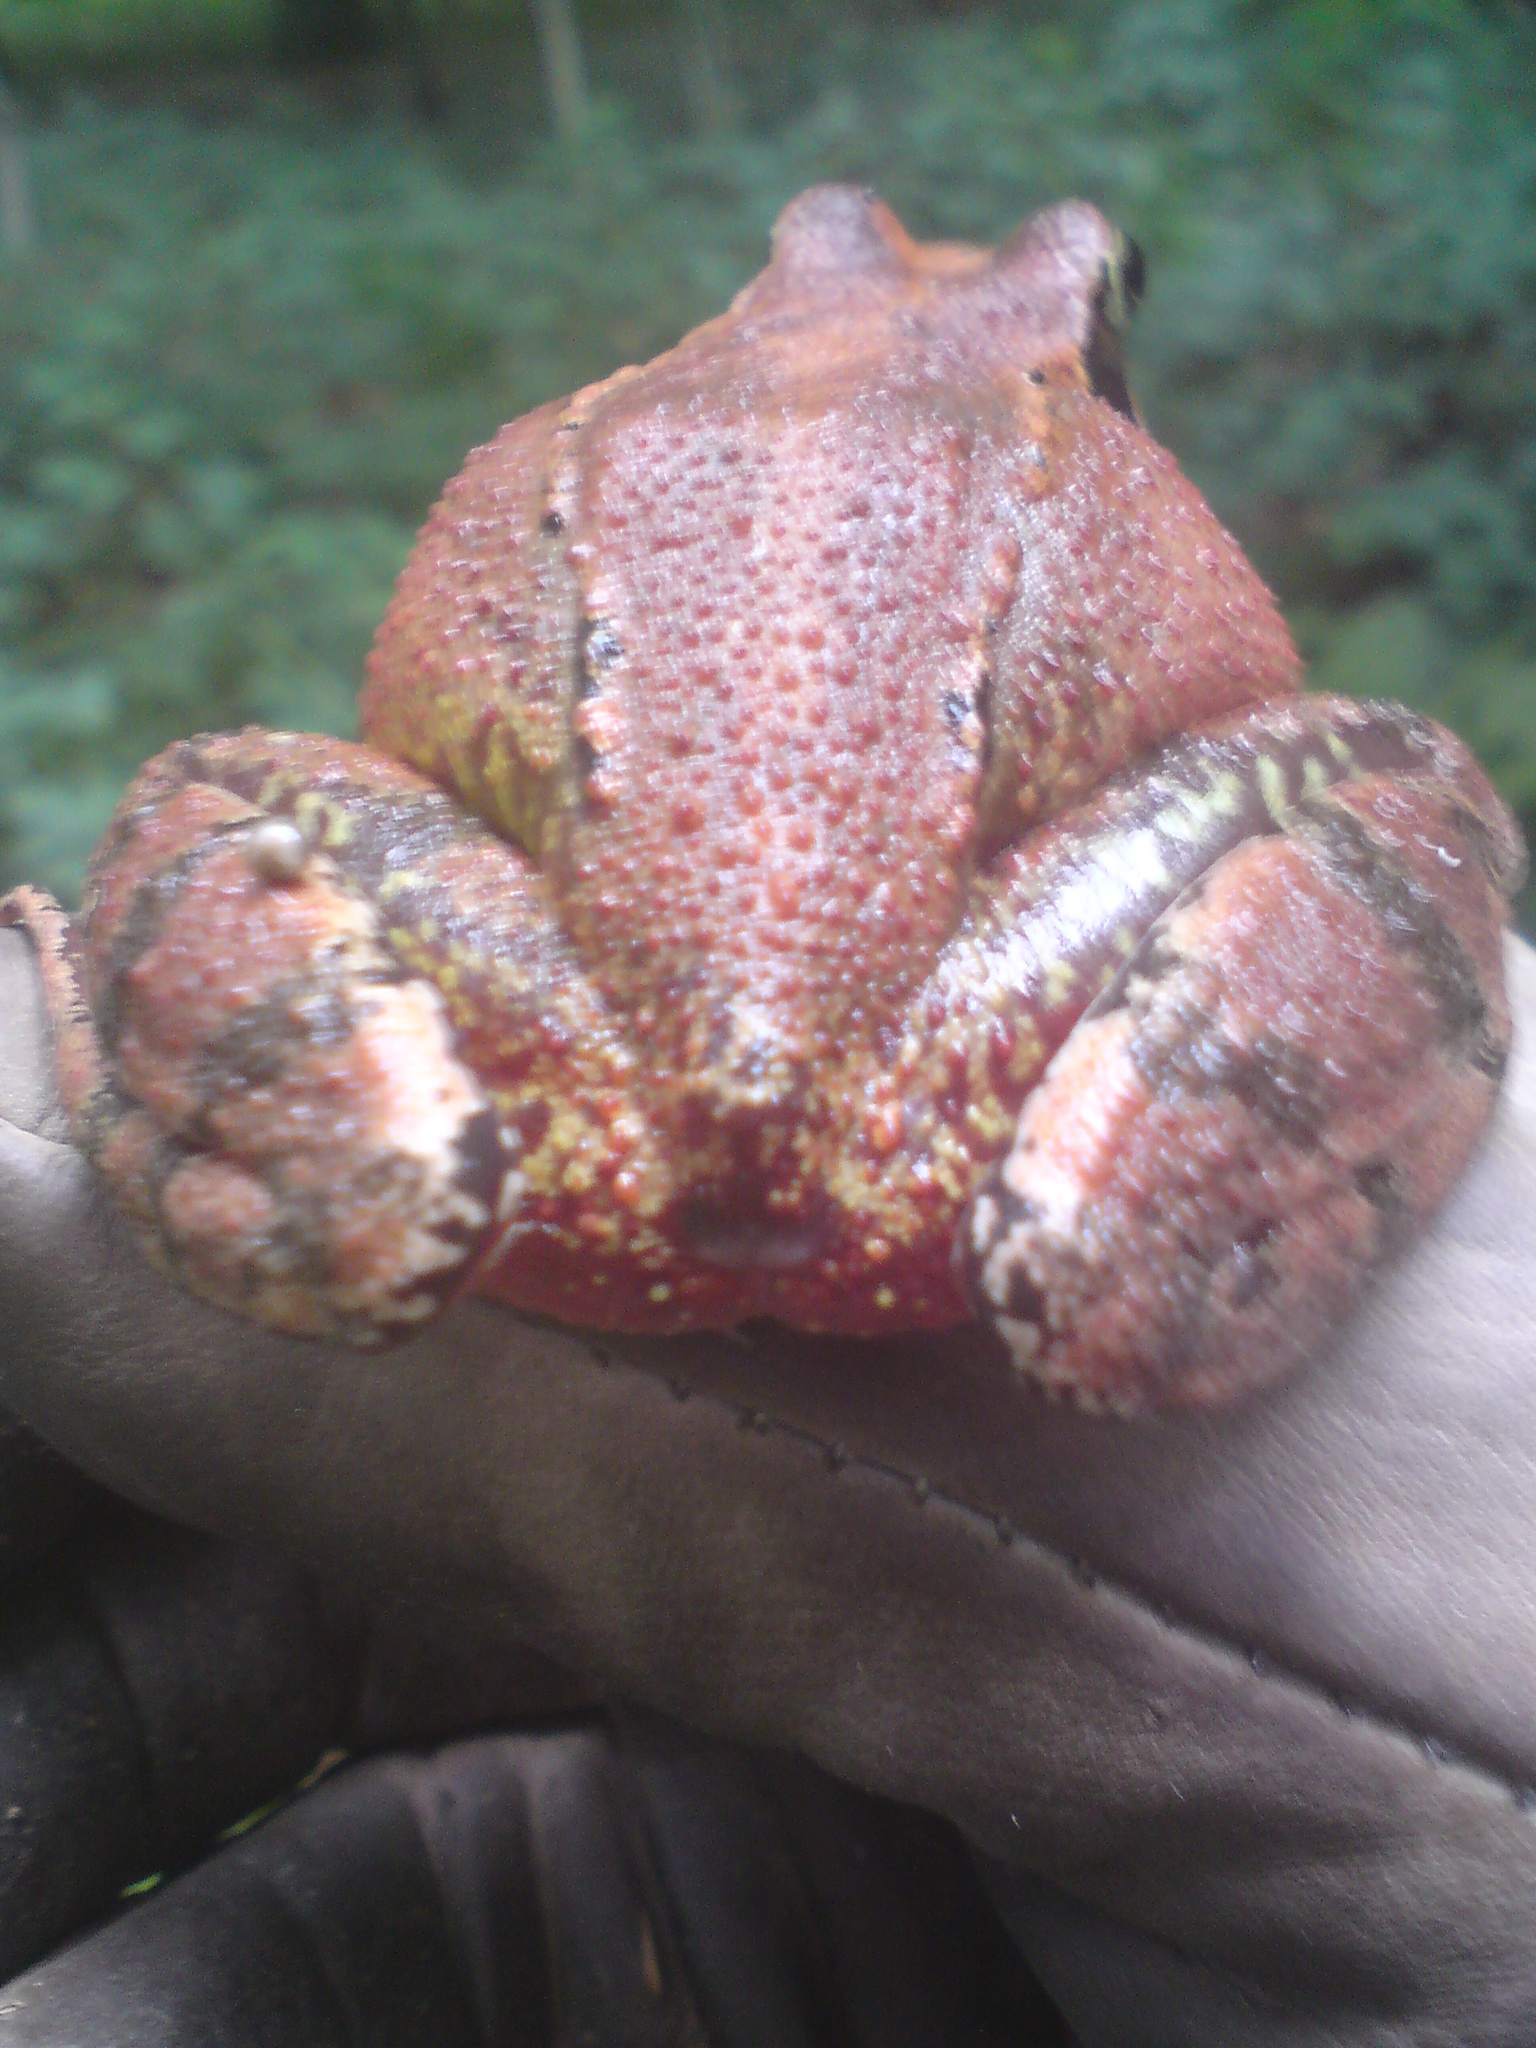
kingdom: Animalia
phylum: Chordata
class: Amphibia
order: Anura
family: Ranidae
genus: Rana
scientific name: Rana temporaria
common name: Common frog
